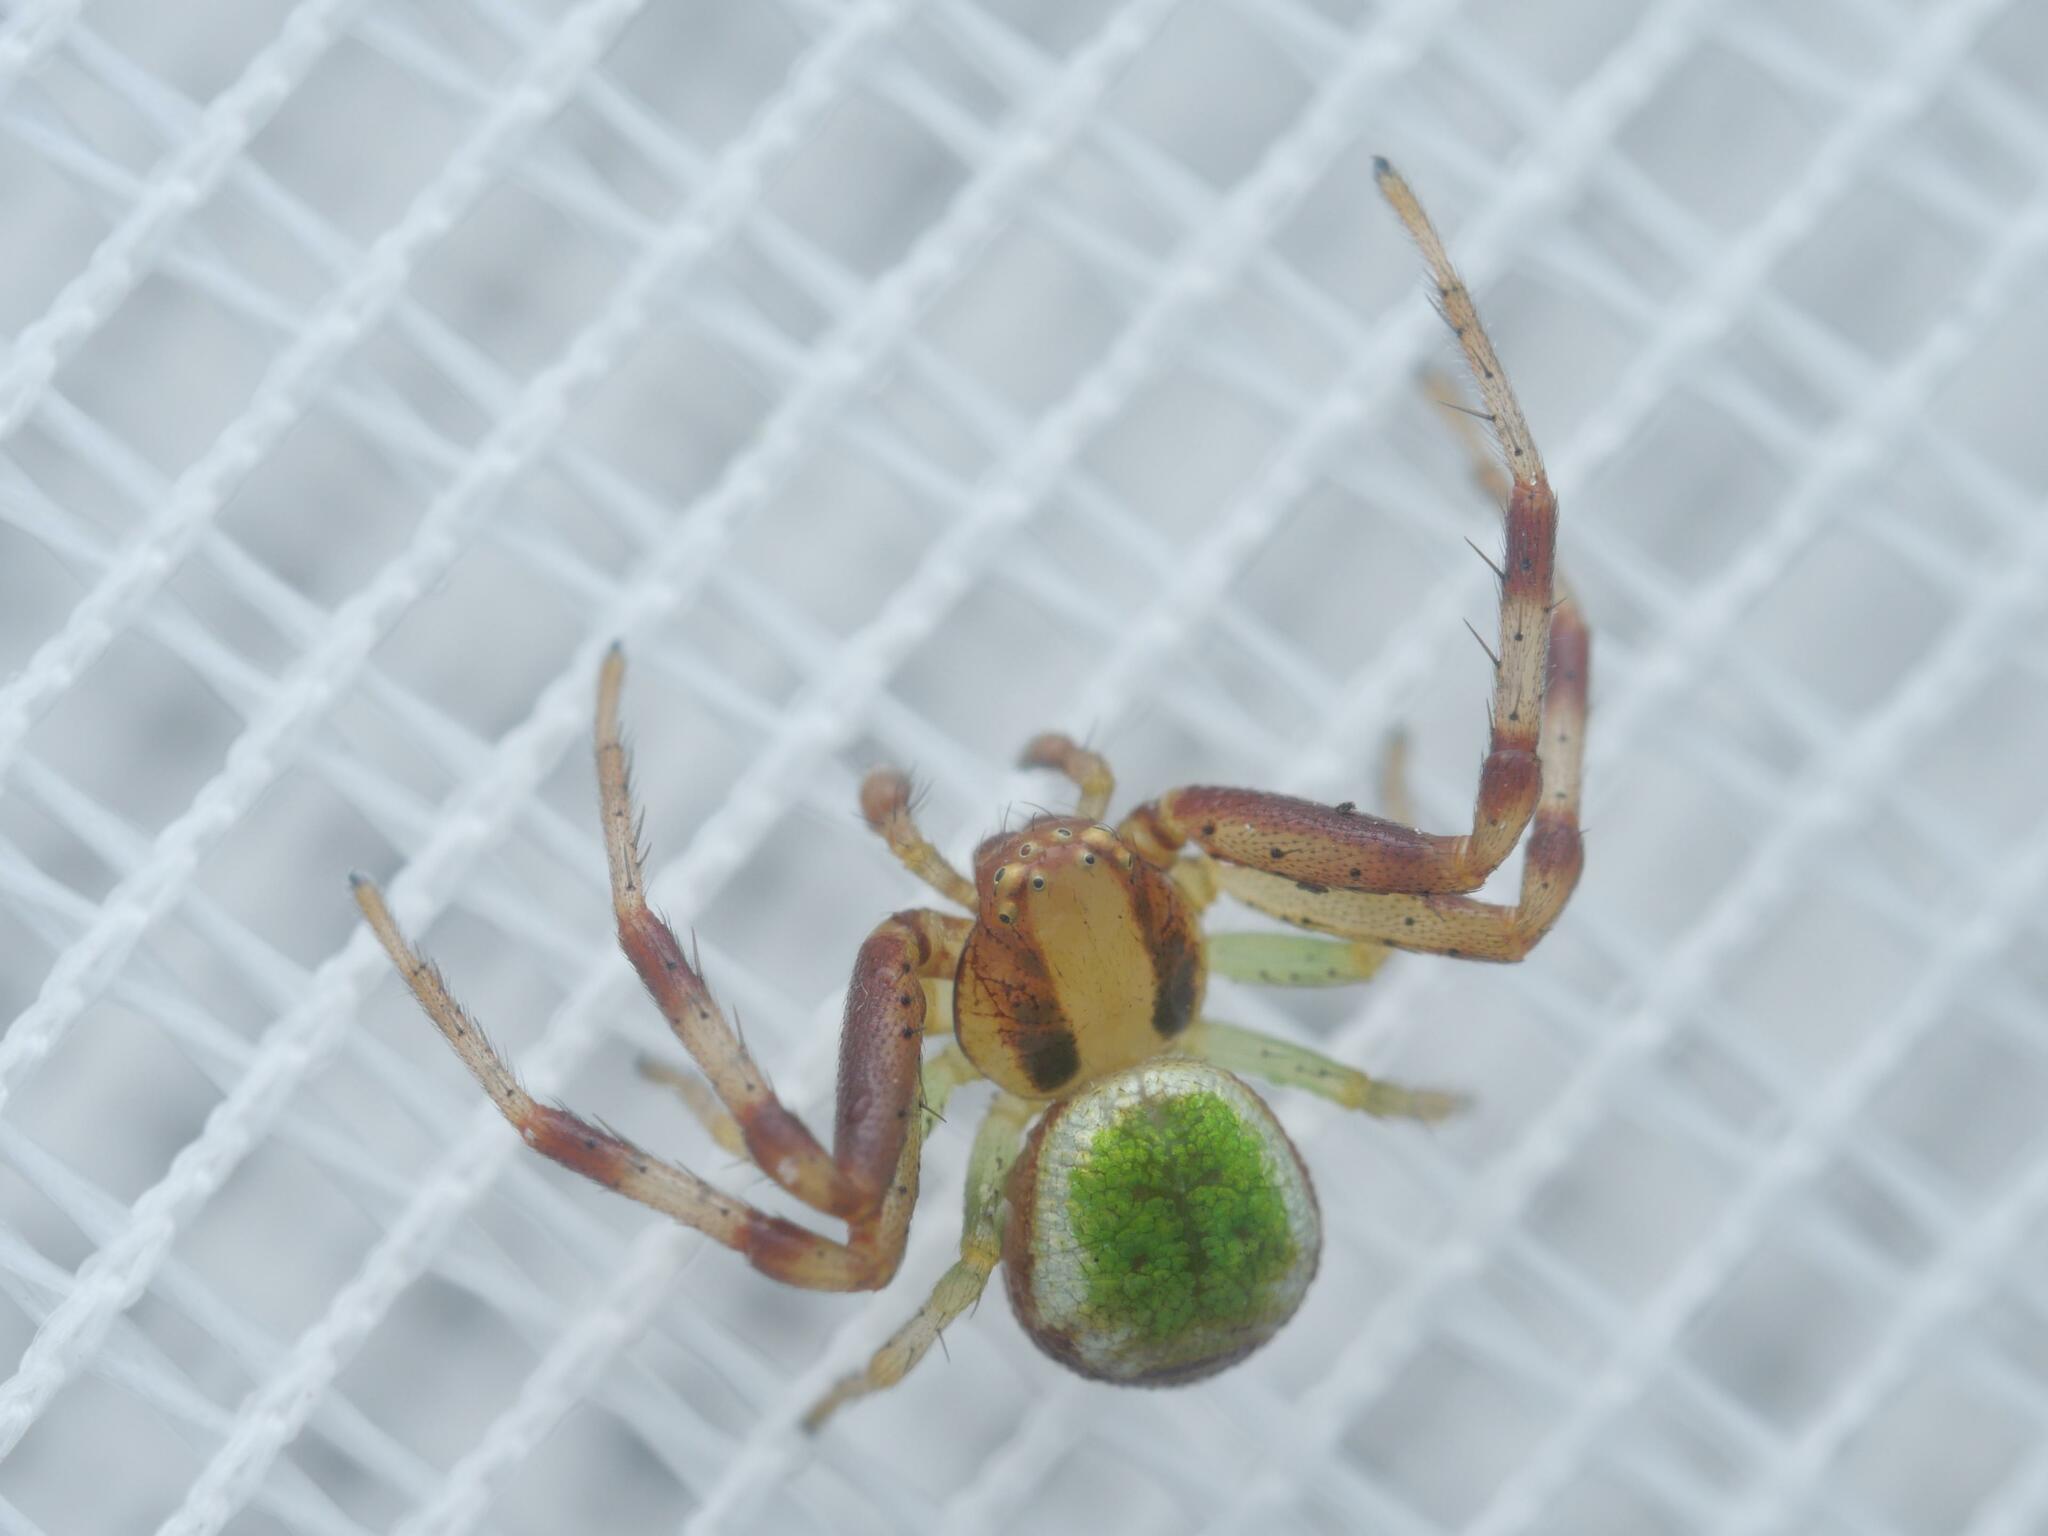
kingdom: Animalia
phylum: Arthropoda
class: Arachnida
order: Araneae
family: Thomisidae
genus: Ebrechtella
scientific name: Ebrechtella tricuspidata
